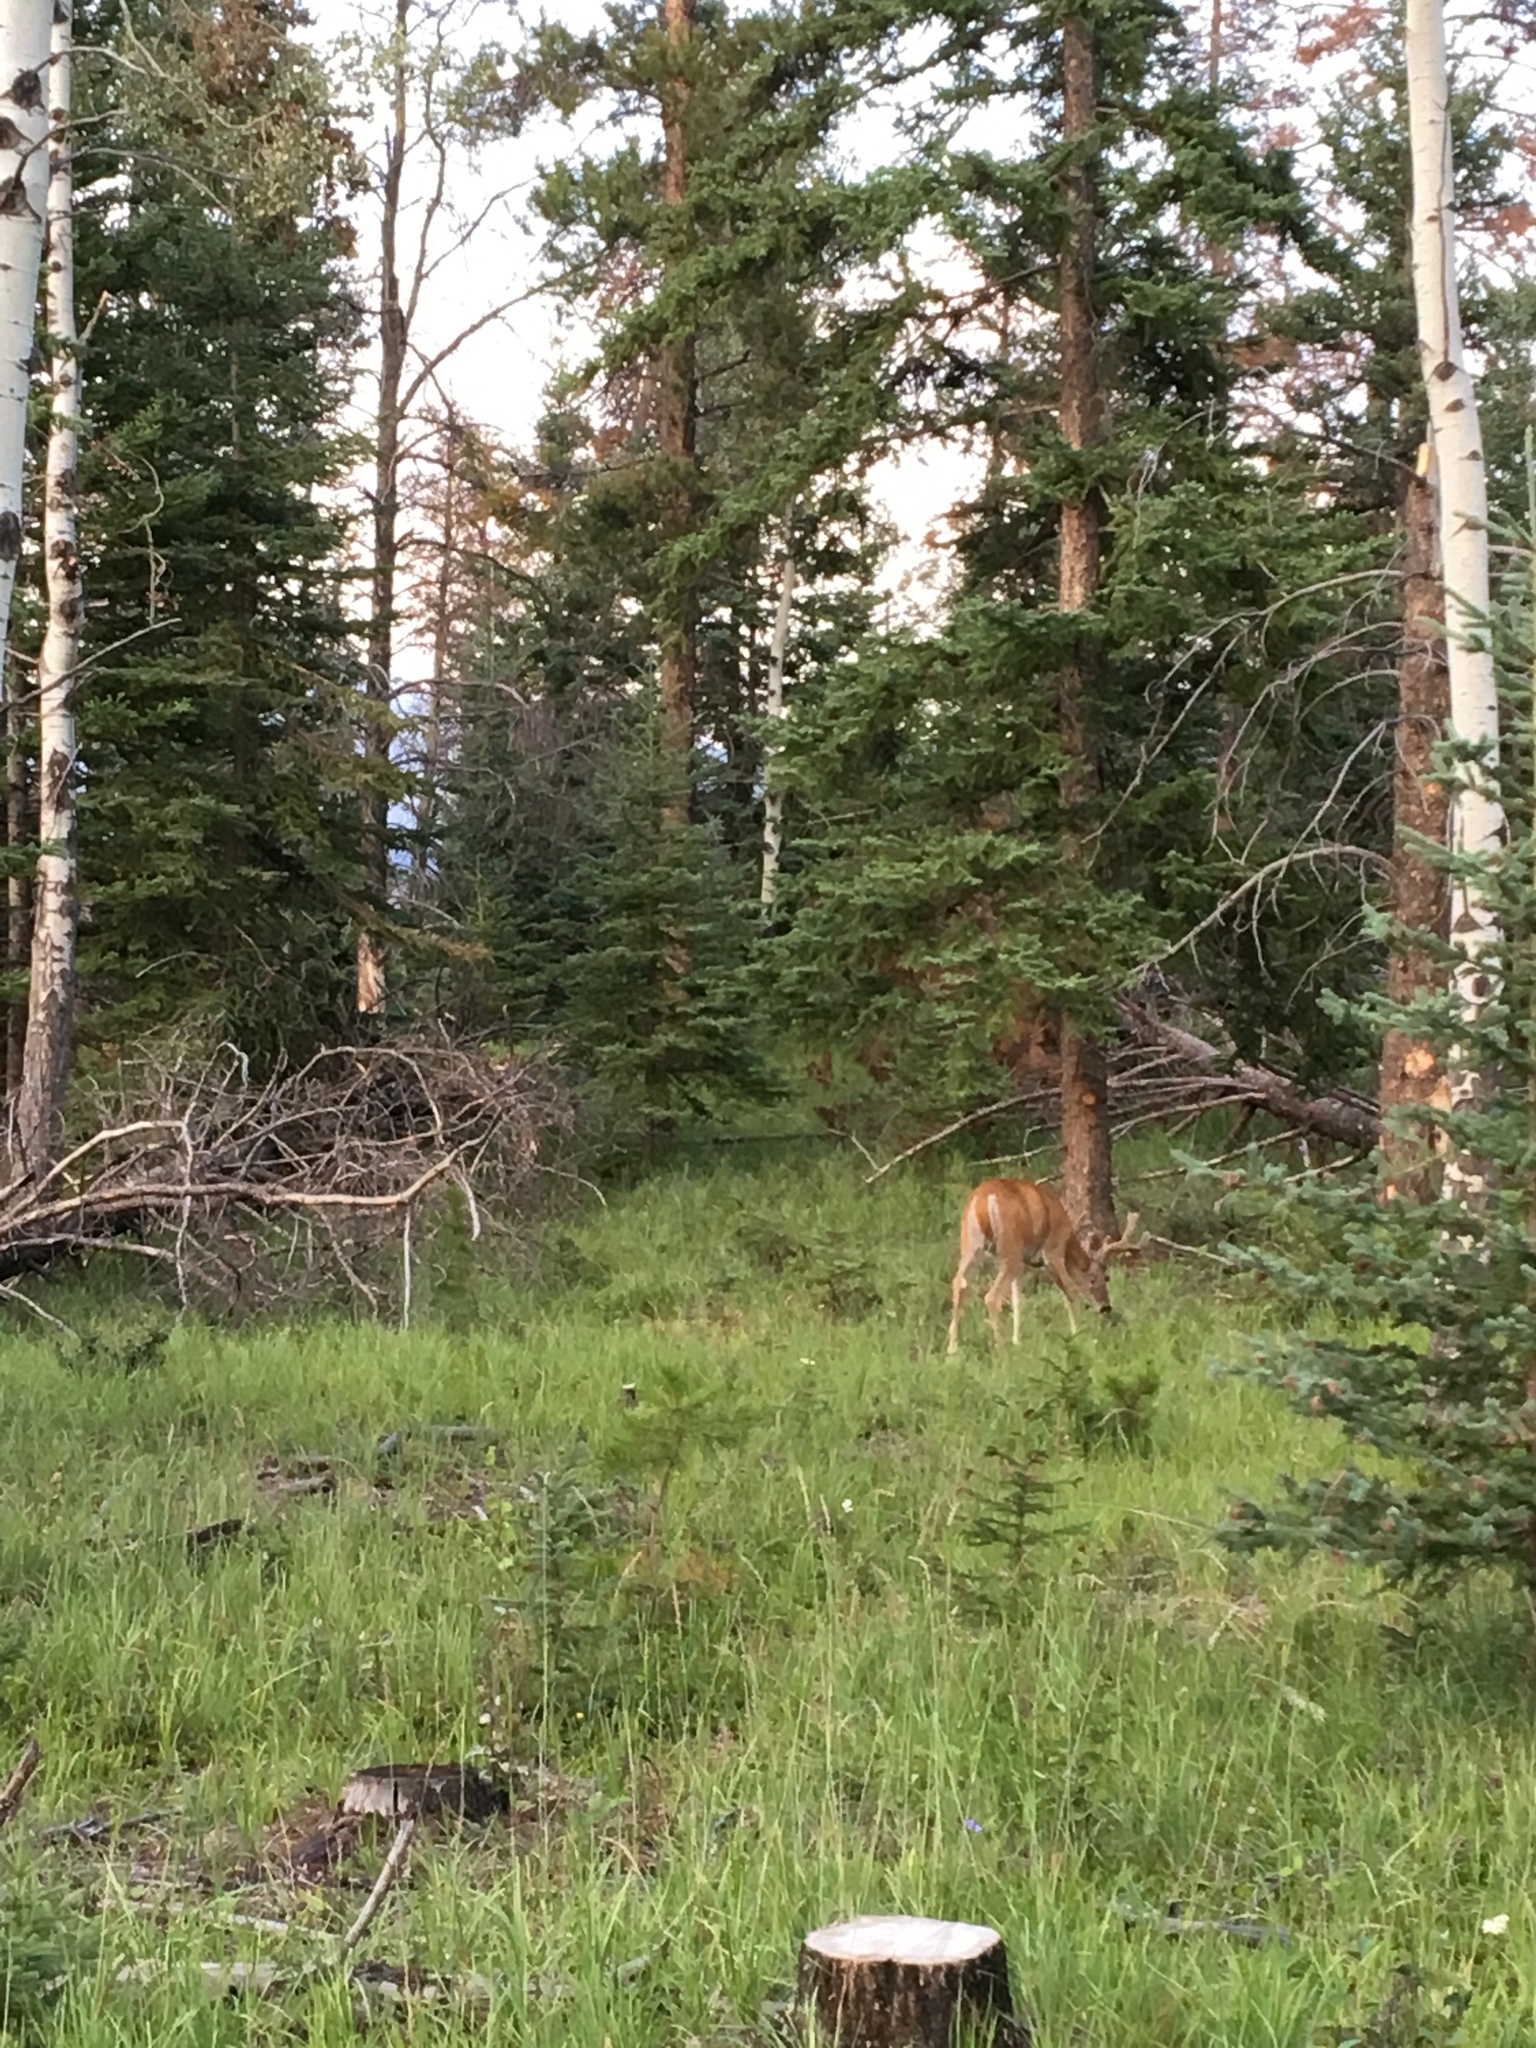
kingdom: Animalia
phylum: Chordata
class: Mammalia
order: Artiodactyla
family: Cervidae
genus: Odocoileus
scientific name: Odocoileus virginianus
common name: White-tailed deer
